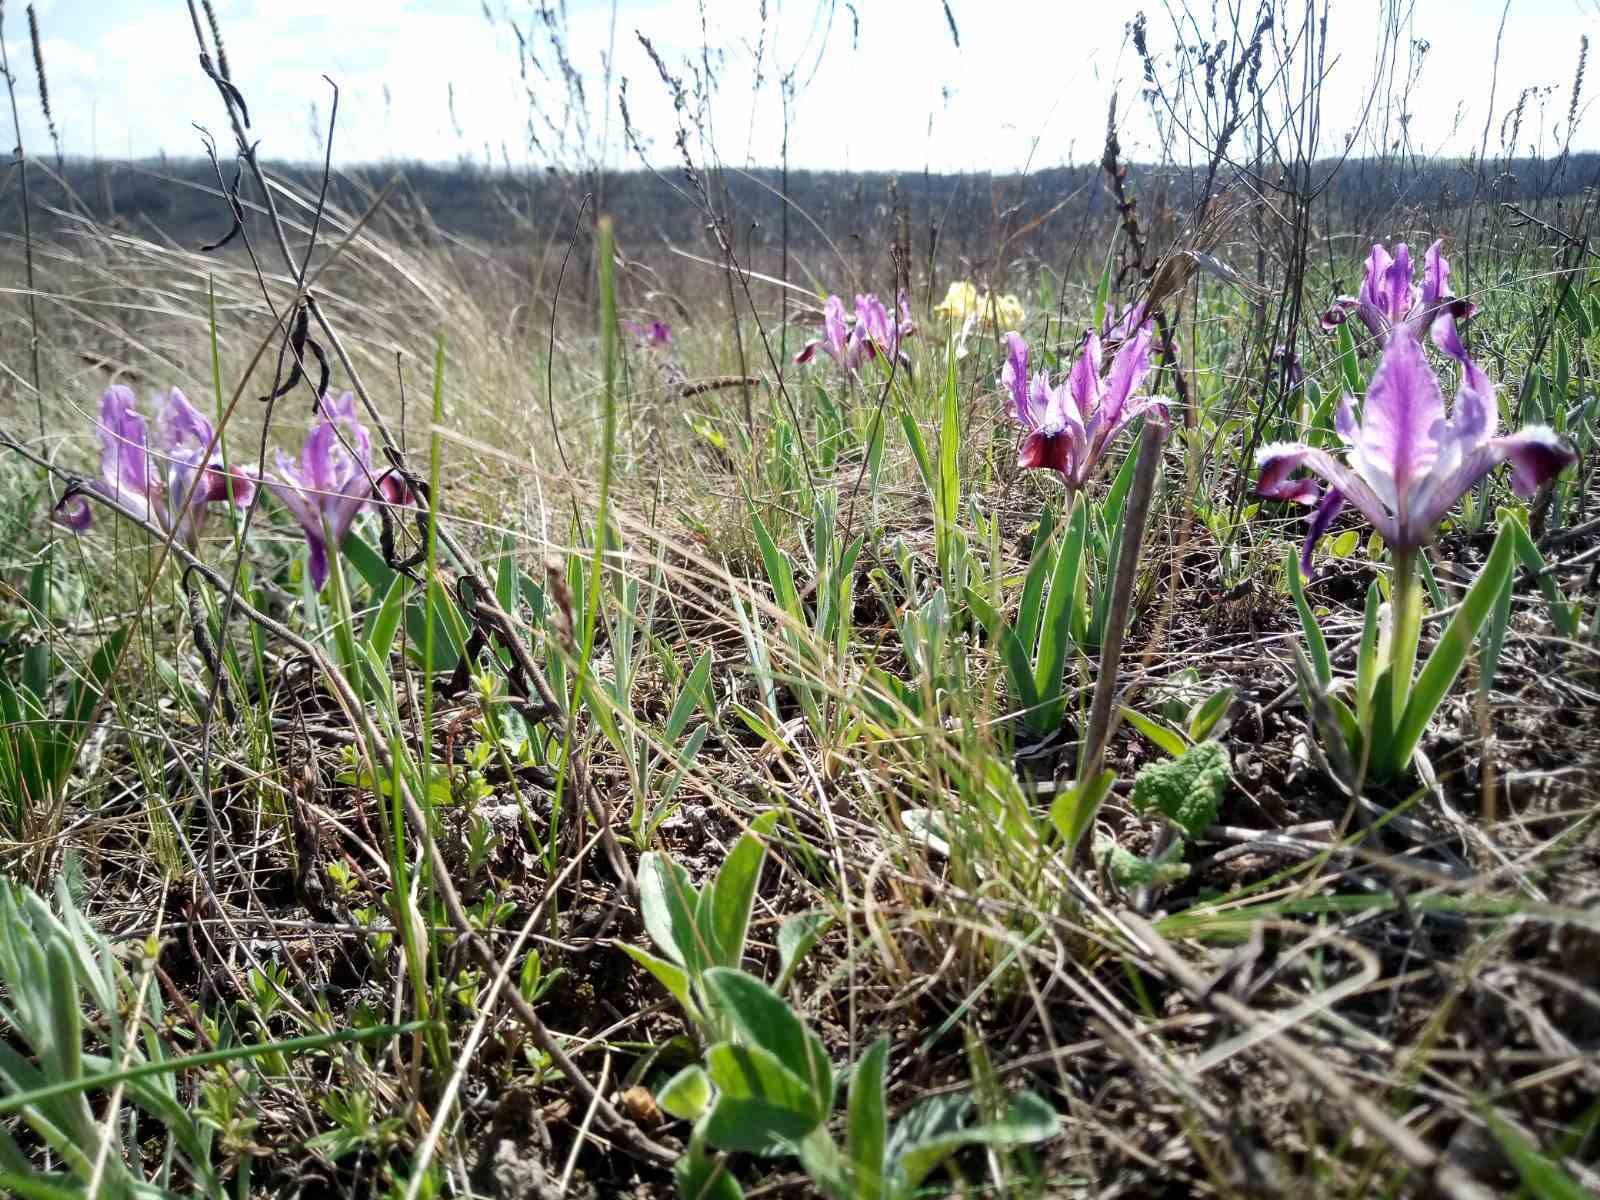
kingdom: Plantae
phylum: Tracheophyta
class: Liliopsida
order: Asparagales
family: Iridaceae
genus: Iris
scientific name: Iris pumila
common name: Dwarf iris
